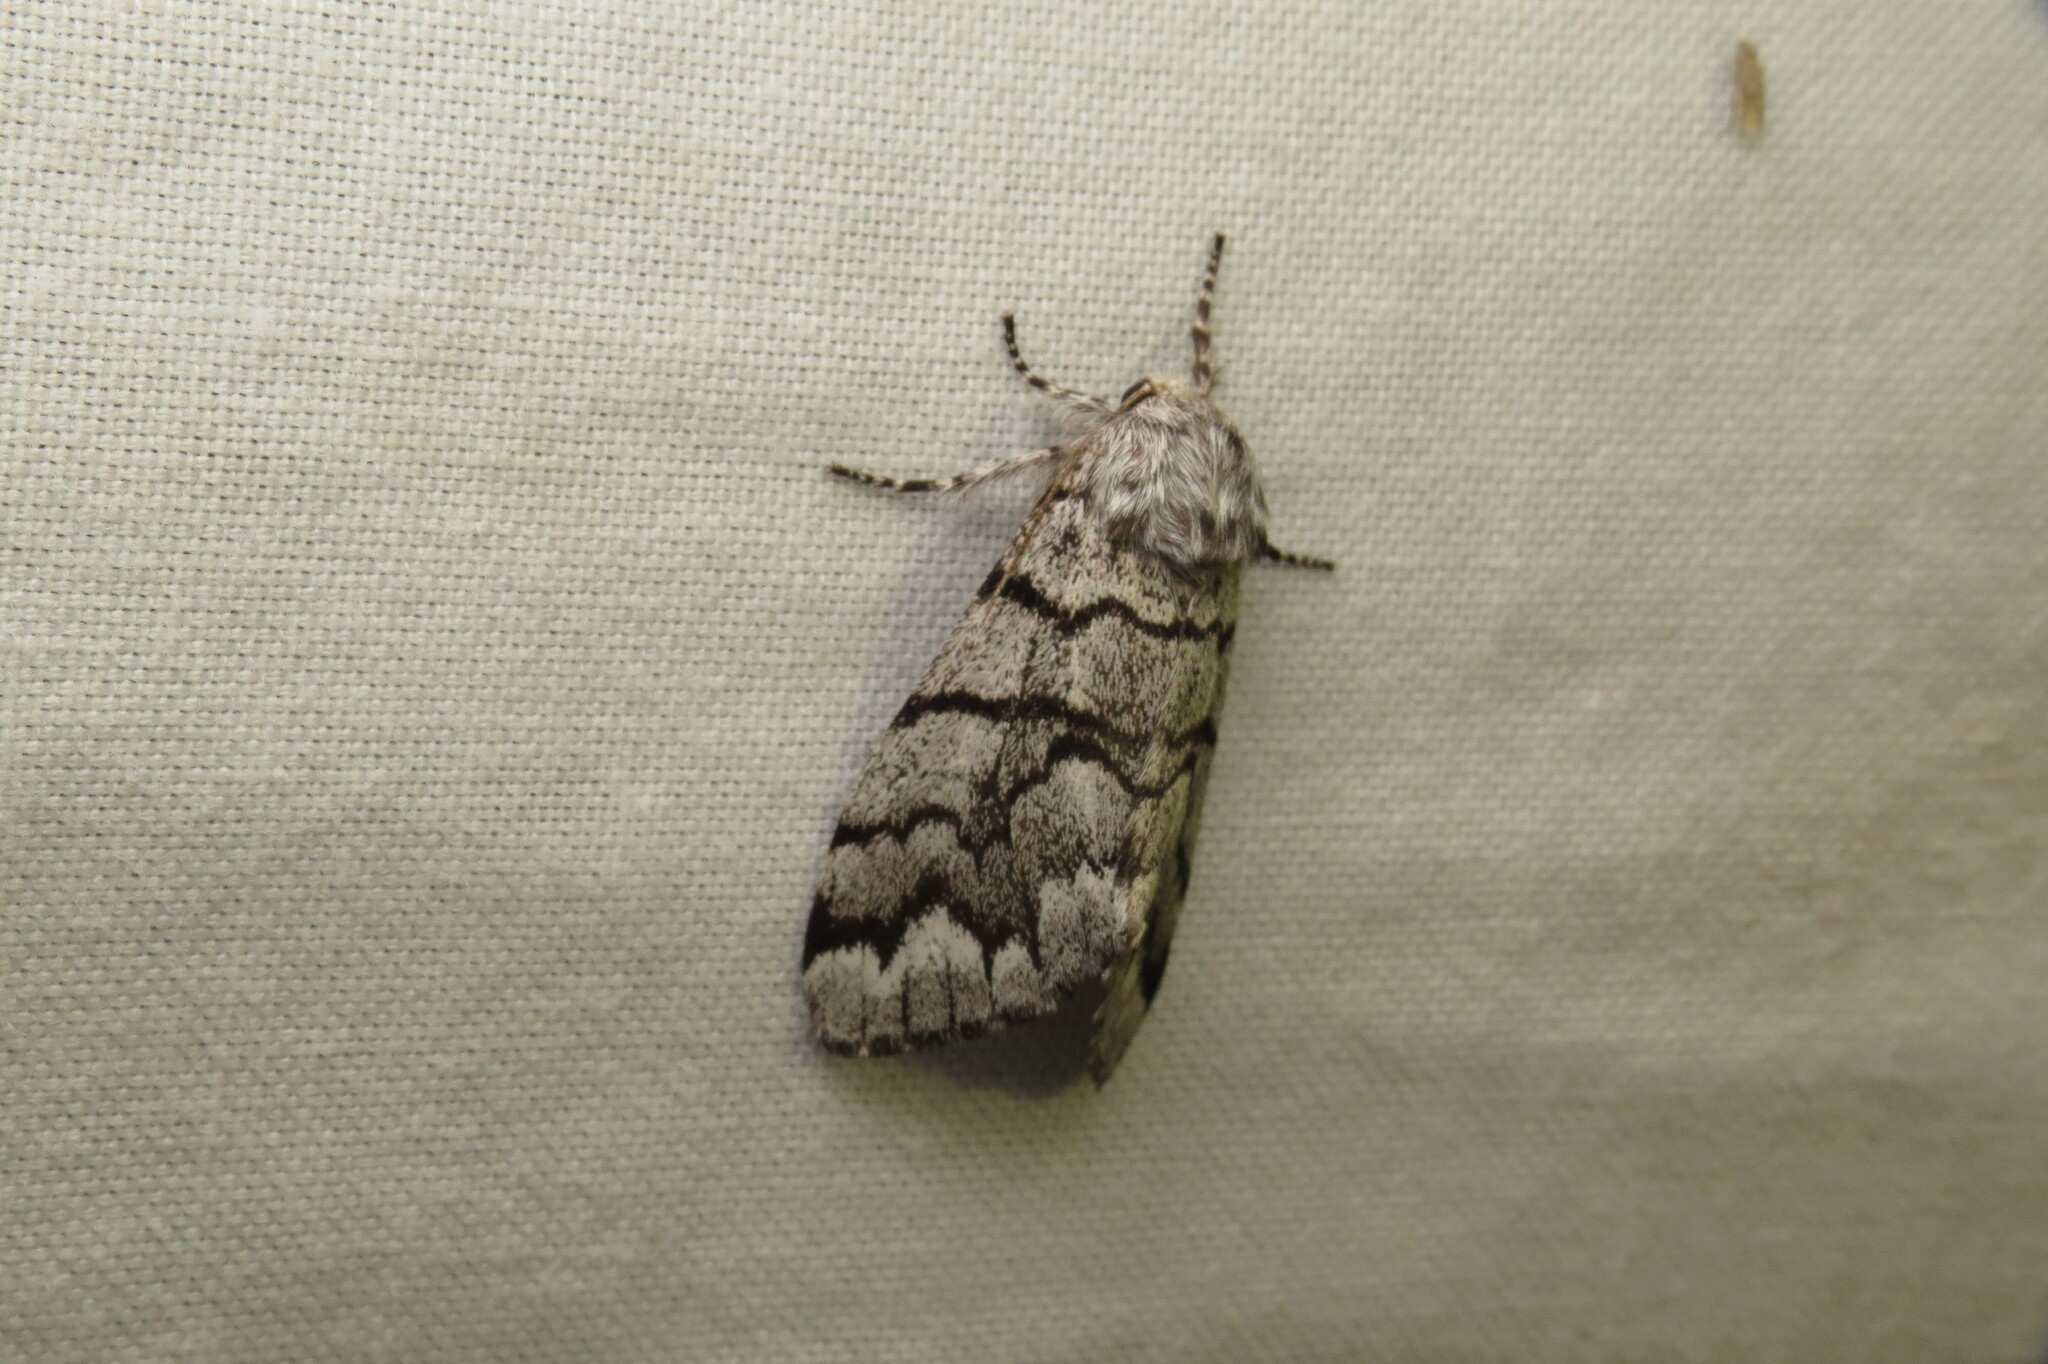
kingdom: Animalia
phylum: Arthropoda
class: Insecta
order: Lepidoptera
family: Noctuidae
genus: Panthea
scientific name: Panthea furcilla
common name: Eastern panthea moth
